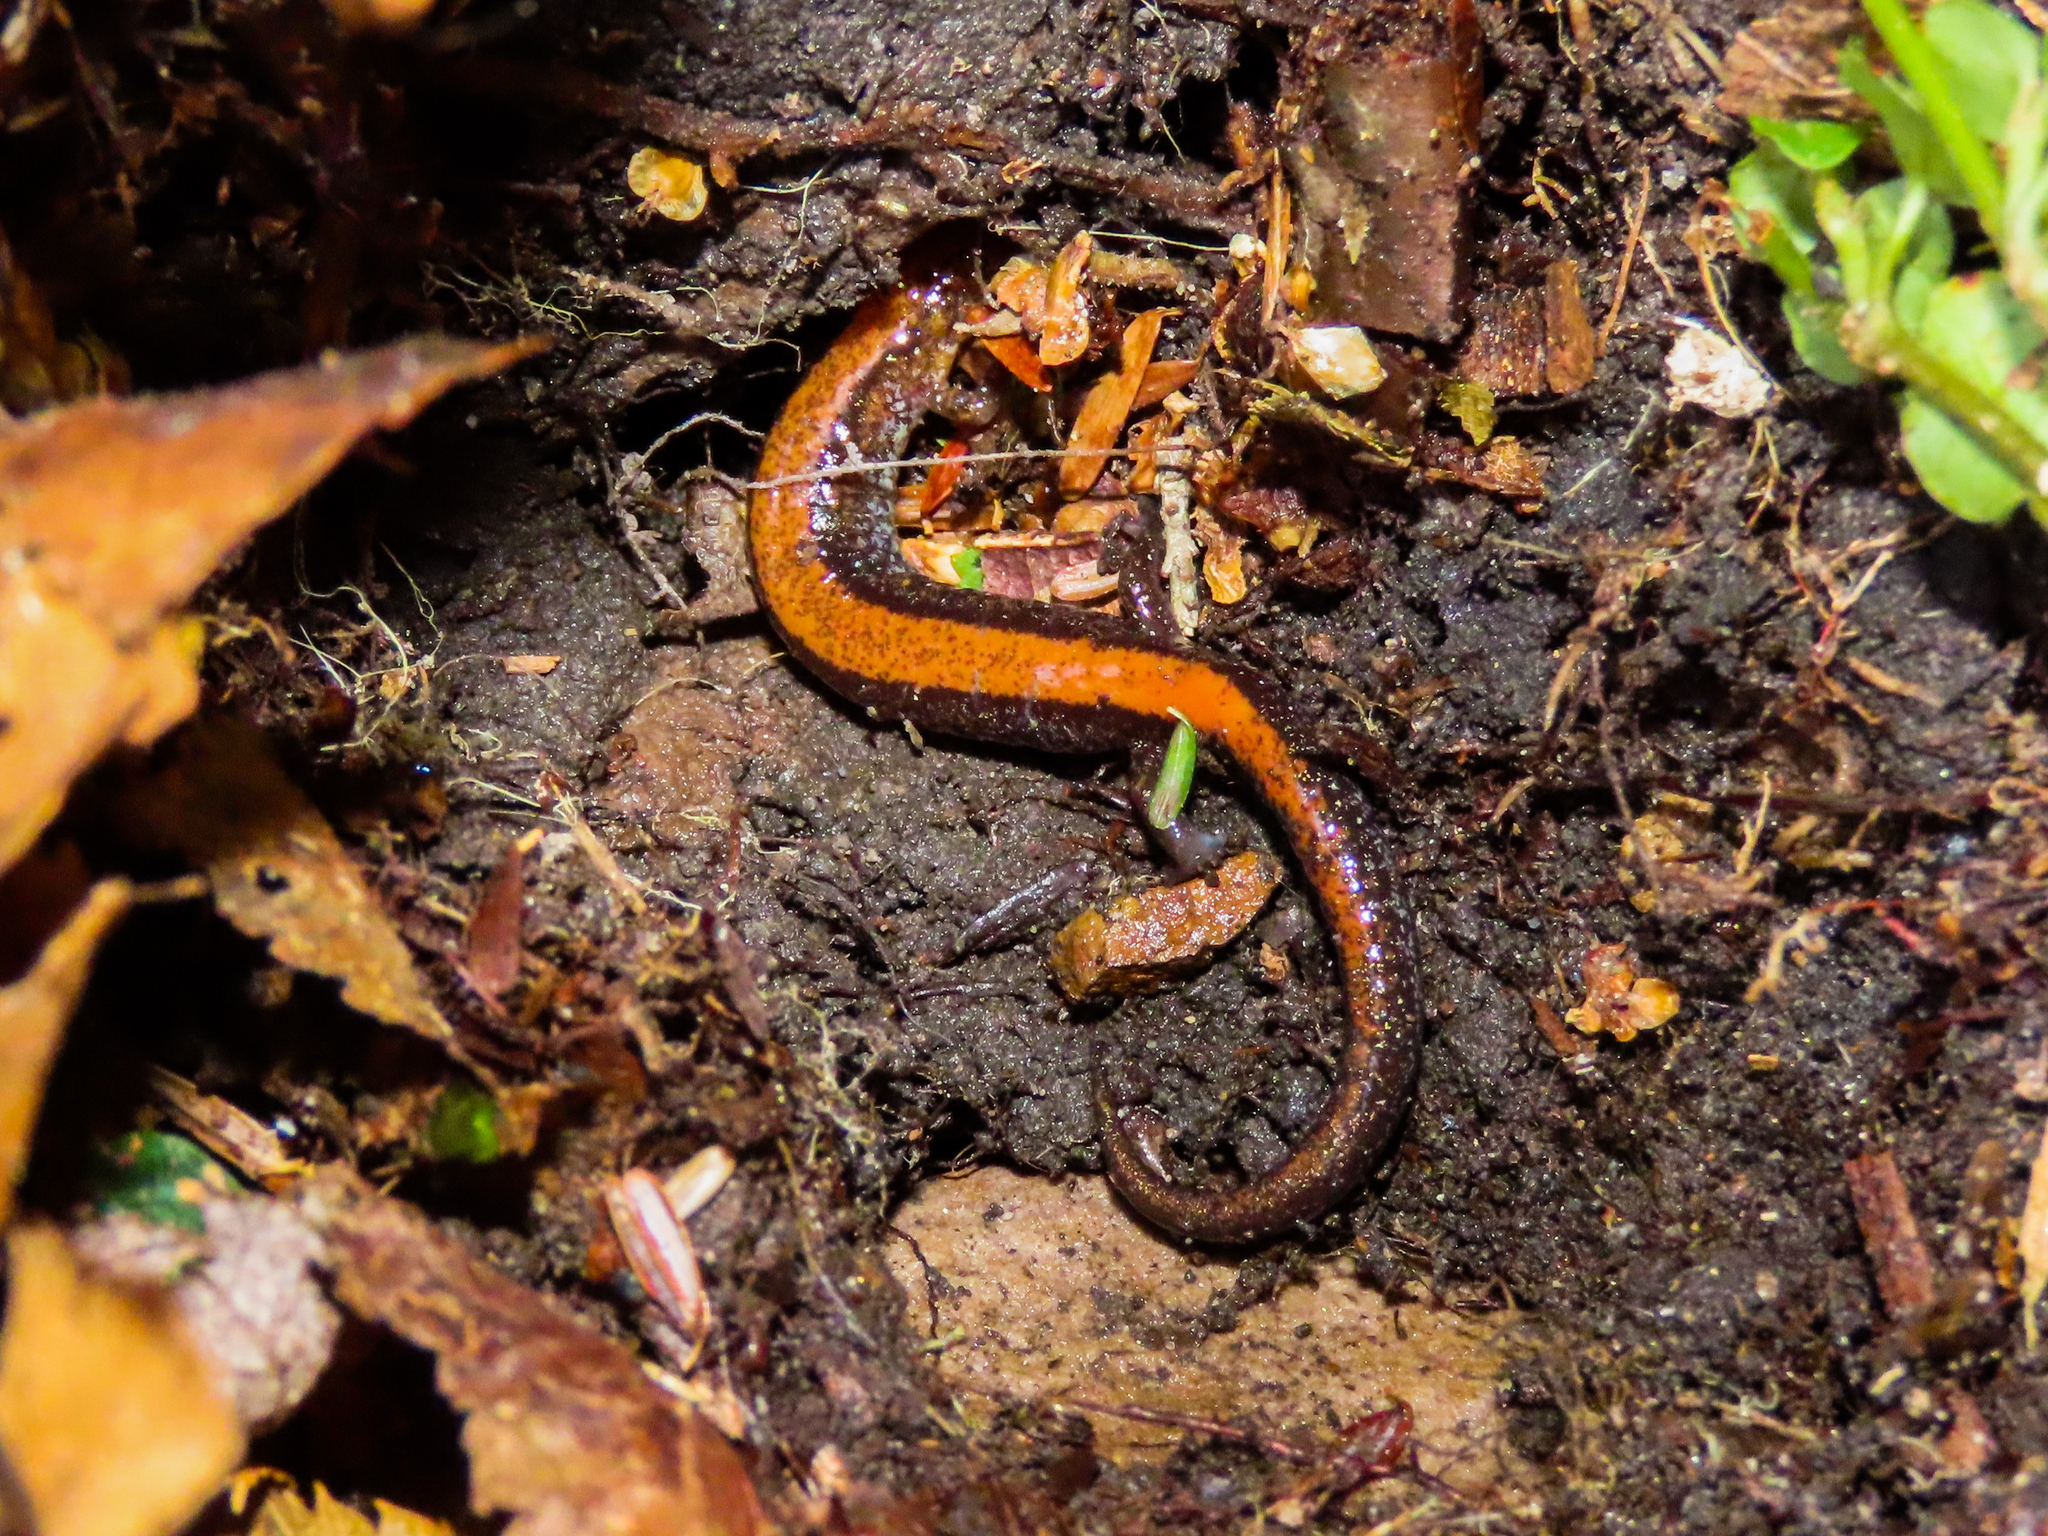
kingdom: Animalia
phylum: Chordata
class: Amphibia
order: Caudata
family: Plethodontidae
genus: Plethodon
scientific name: Plethodon cinereus
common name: Redback salamander
